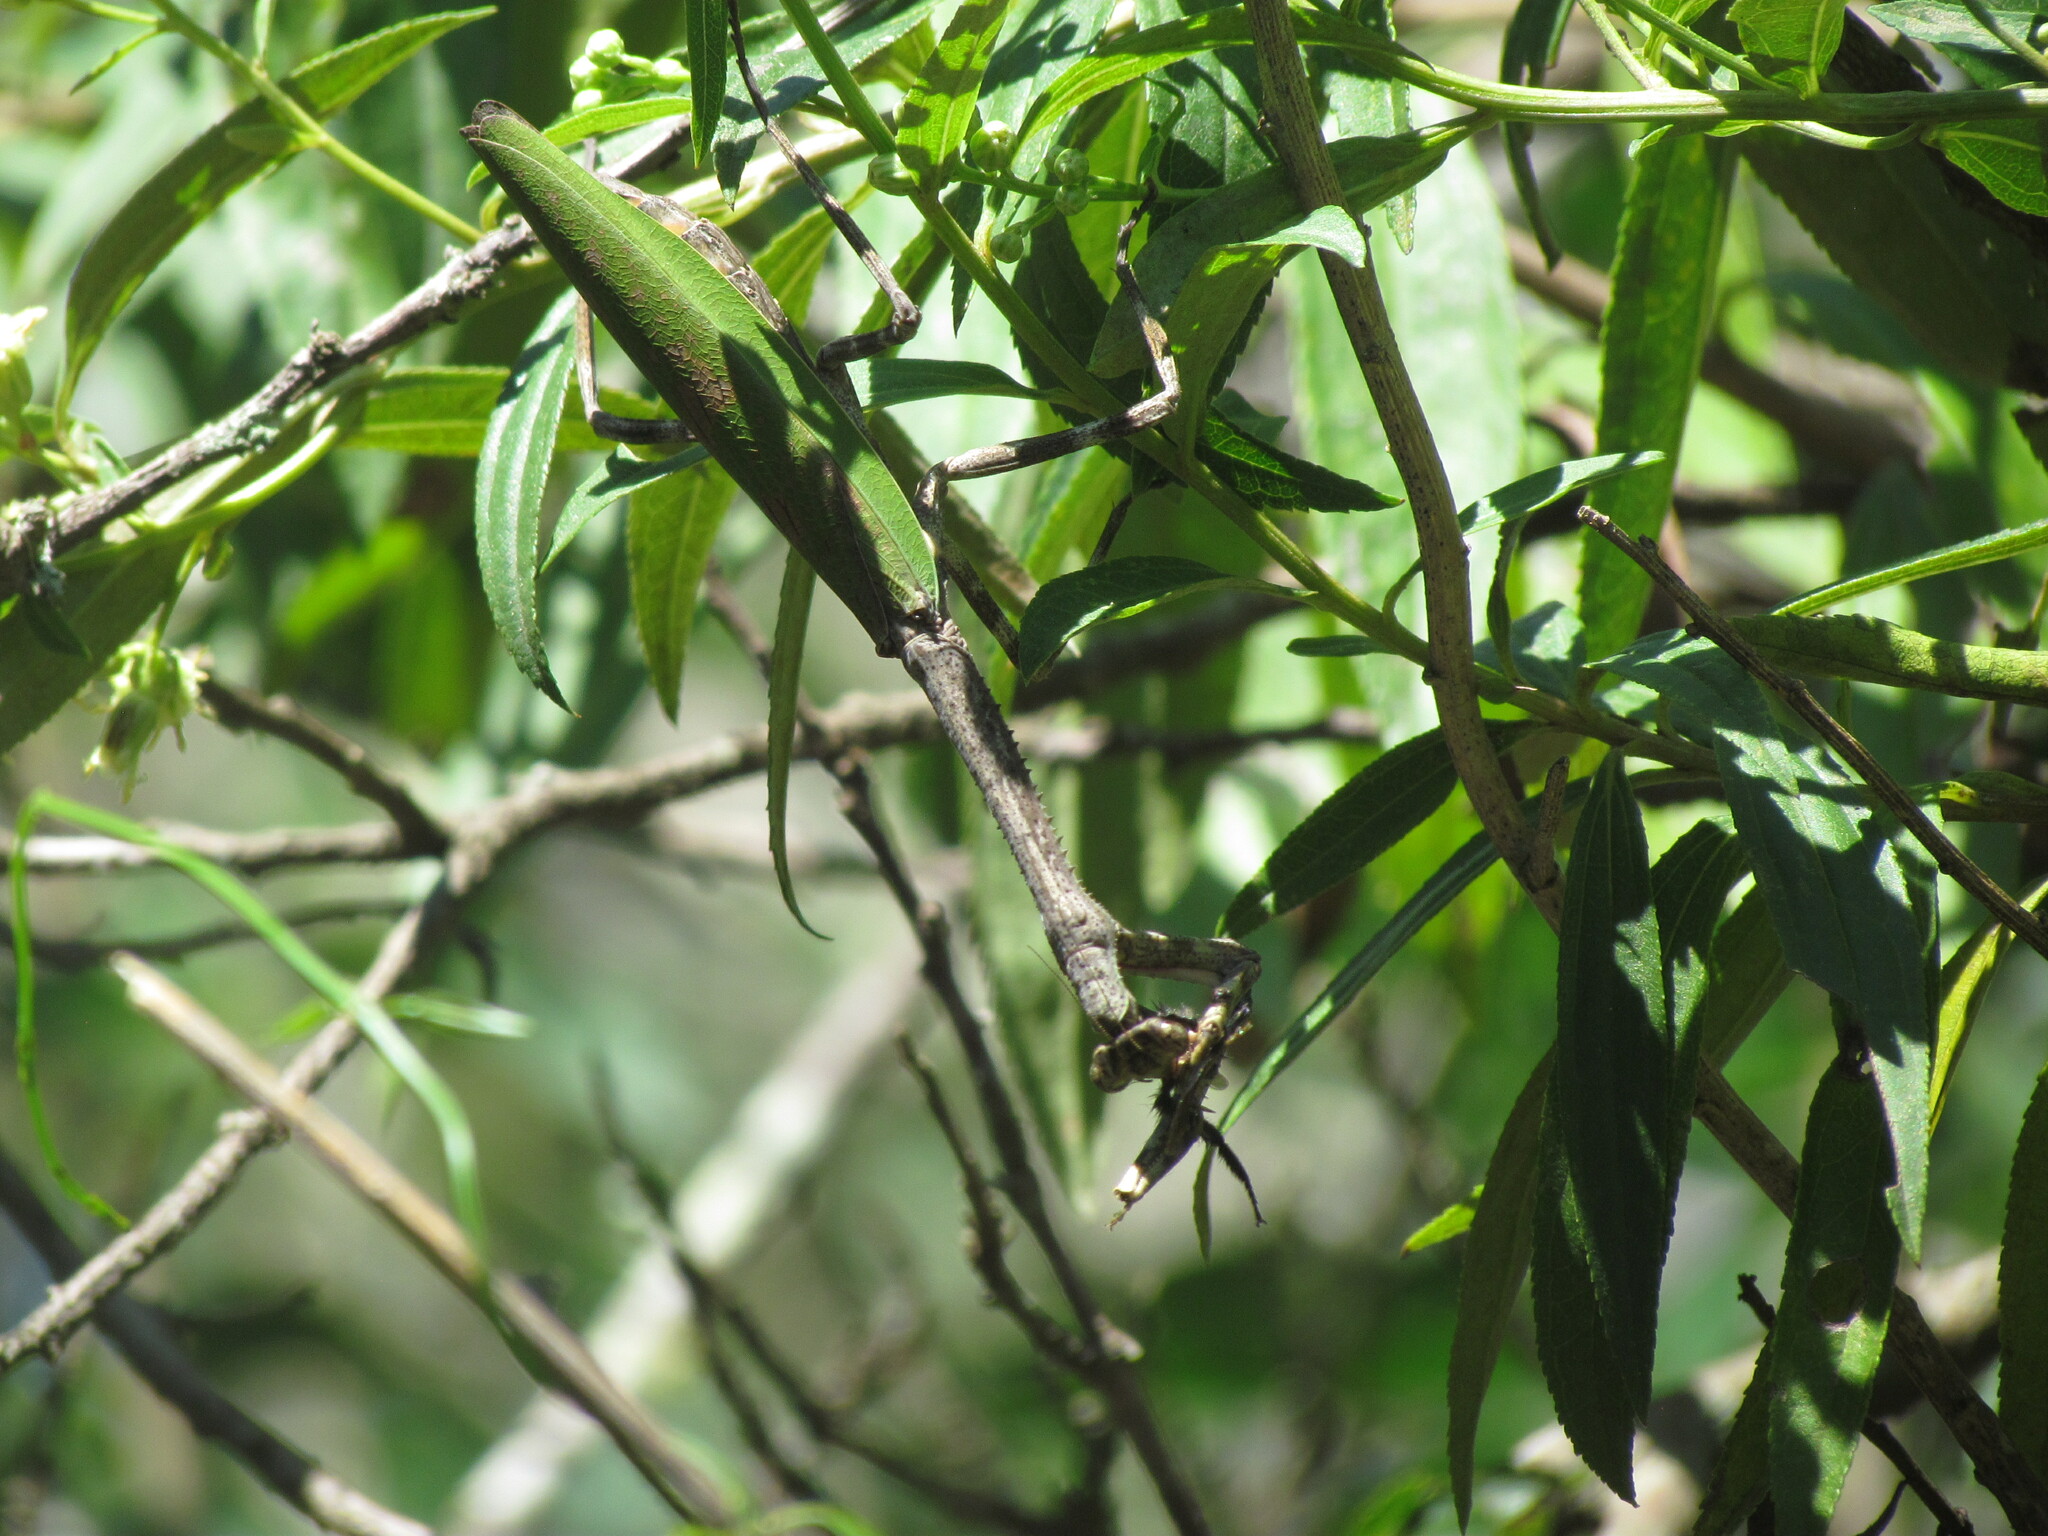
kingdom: Animalia
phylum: Arthropoda
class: Insecta
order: Mantodea
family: Mantidae
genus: Pseudovates
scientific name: Pseudovates iheringi
